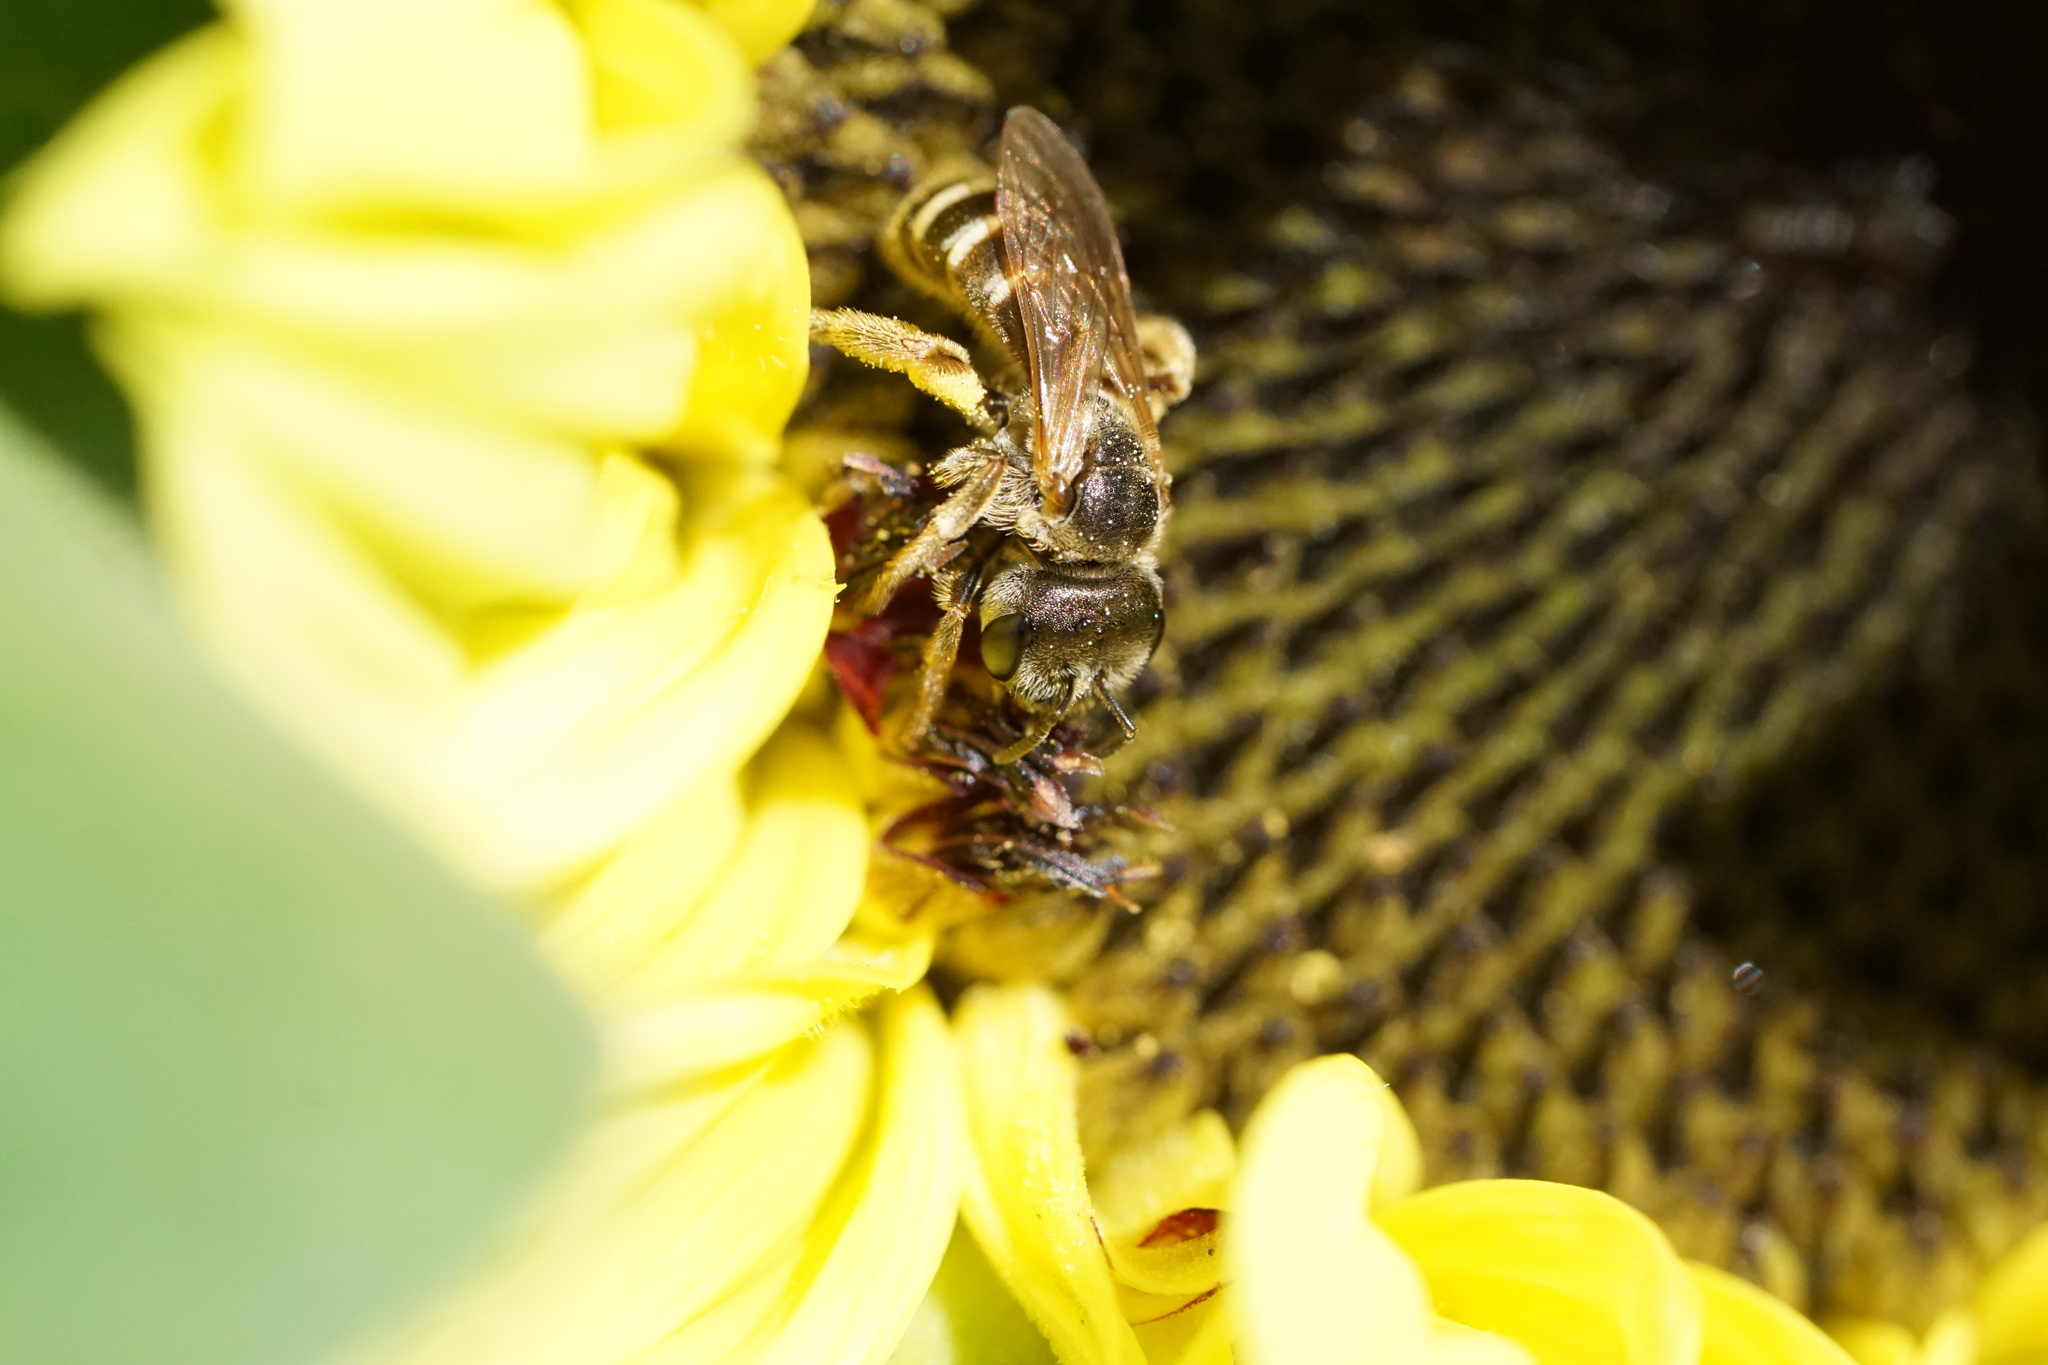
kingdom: Animalia
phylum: Arthropoda
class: Insecta
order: Hymenoptera
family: Halictidae
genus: Halictus
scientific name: Halictus ligatus
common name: Ligated furrow bee
